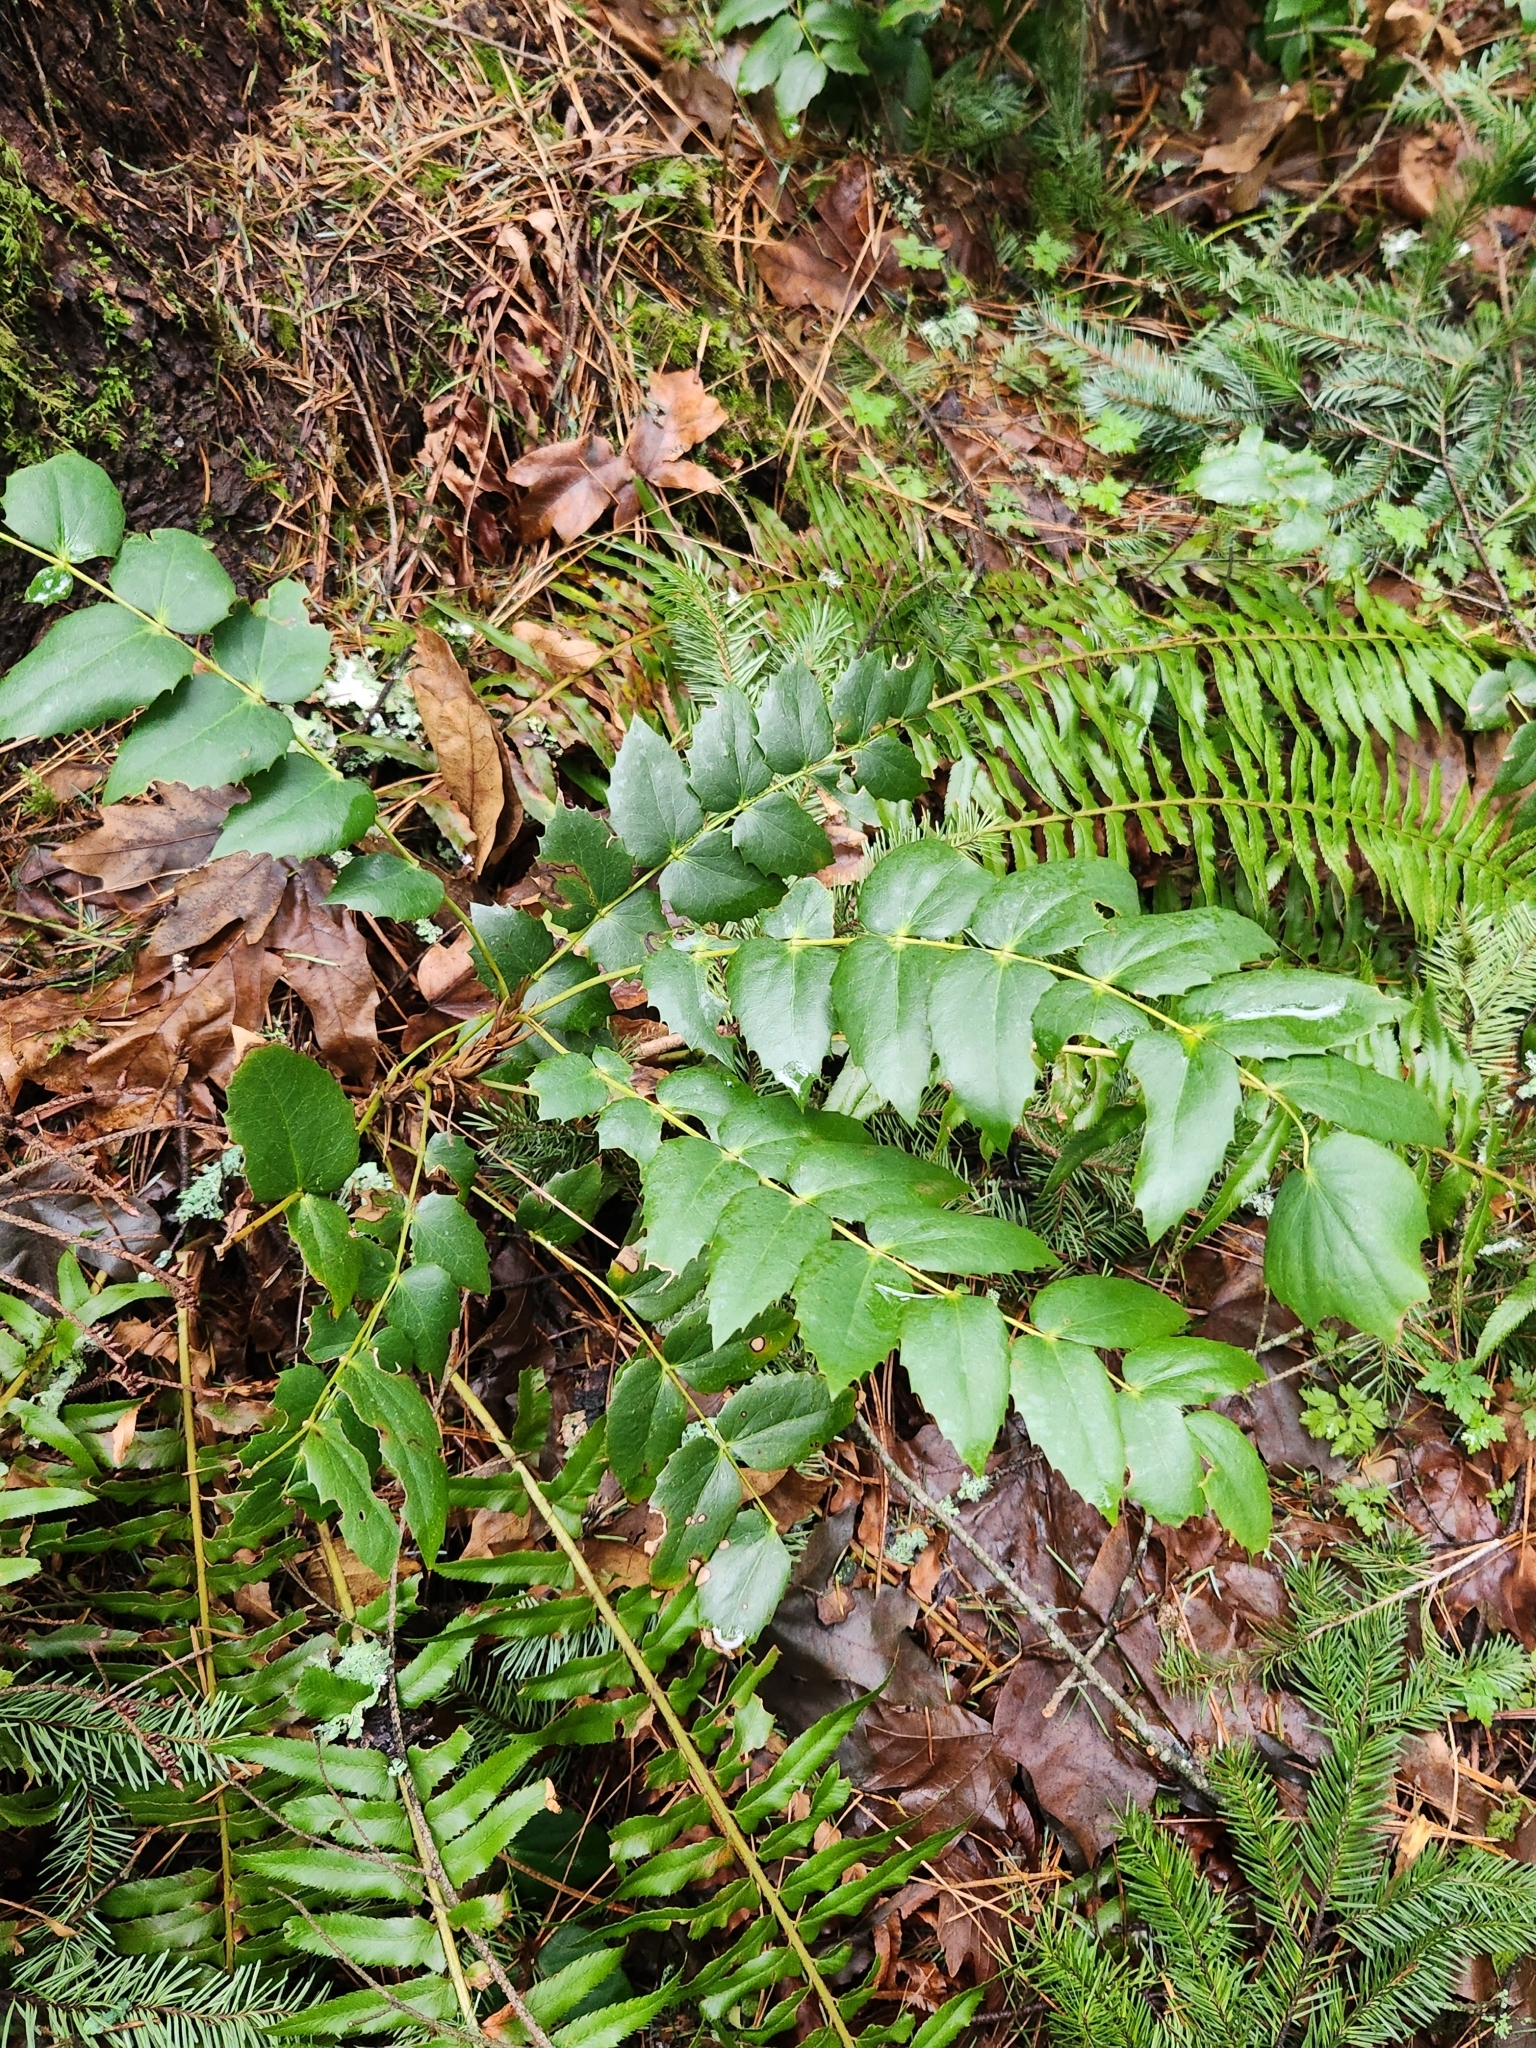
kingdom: Plantae
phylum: Tracheophyta
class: Magnoliopsida
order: Ranunculales
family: Berberidaceae
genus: Mahonia
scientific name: Mahonia nervosa
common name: Cascade oregon-grape
